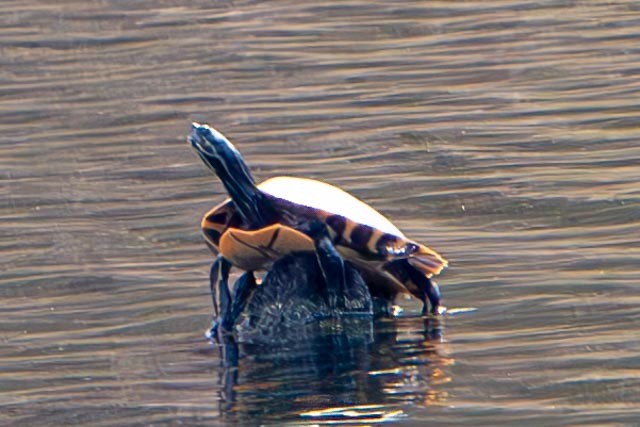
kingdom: Animalia
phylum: Chordata
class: Testudines
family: Emydidae
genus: Pseudemys
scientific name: Pseudemys concinna
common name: Eastern river cooter
